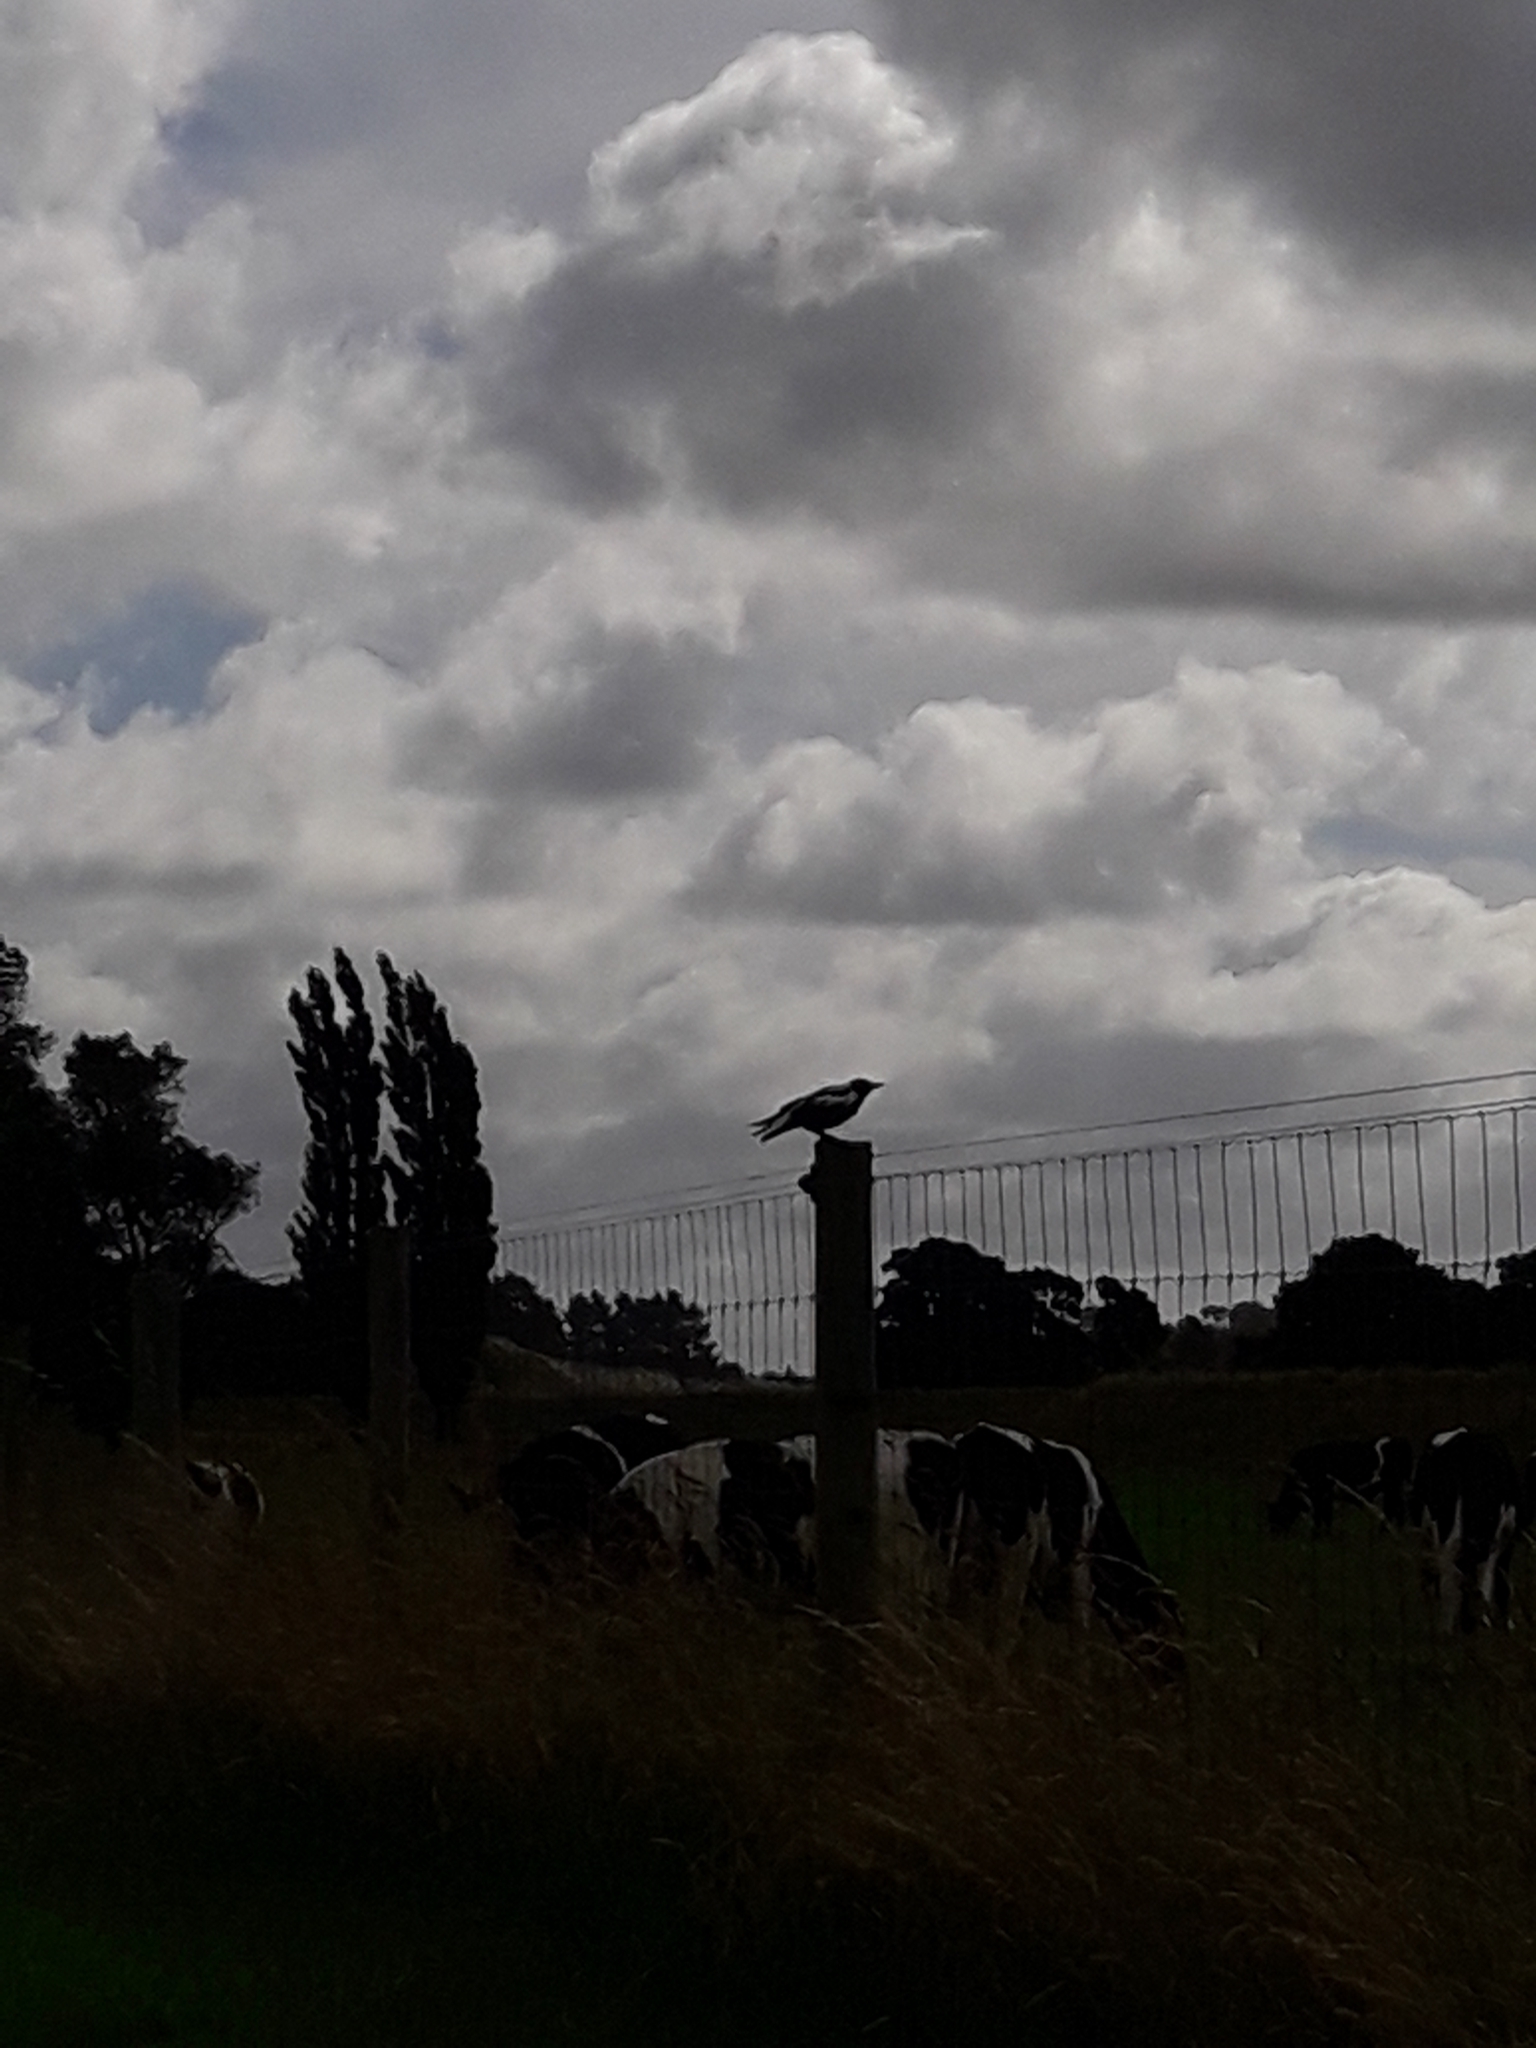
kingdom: Animalia
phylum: Chordata
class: Aves
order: Passeriformes
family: Cracticidae
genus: Gymnorhina
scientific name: Gymnorhina tibicen
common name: Australian magpie
